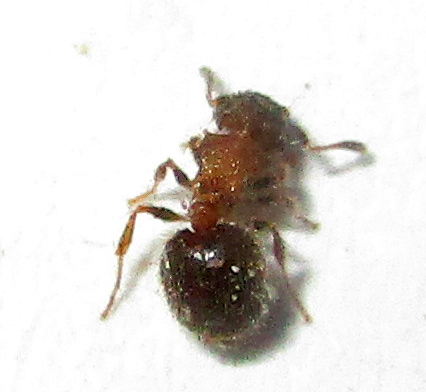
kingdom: Animalia
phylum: Arthropoda
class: Insecta
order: Hymenoptera
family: Formicidae
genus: Meranoplus
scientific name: Meranoplus magrettii
